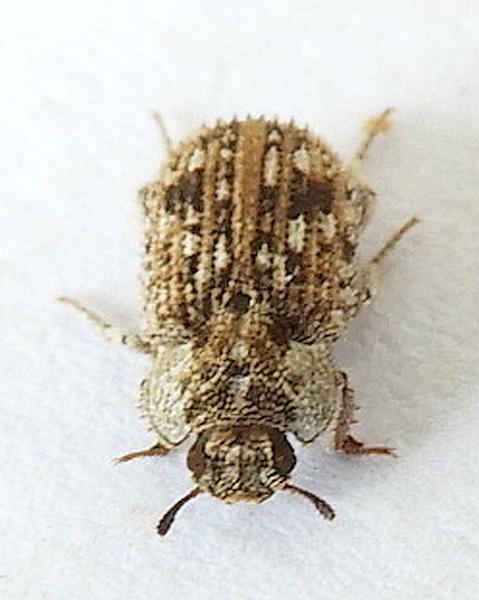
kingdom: Animalia
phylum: Arthropoda
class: Insecta
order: Coleoptera
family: Tenebrionidae
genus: Leichenum
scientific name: Leichenum canaliculatum
